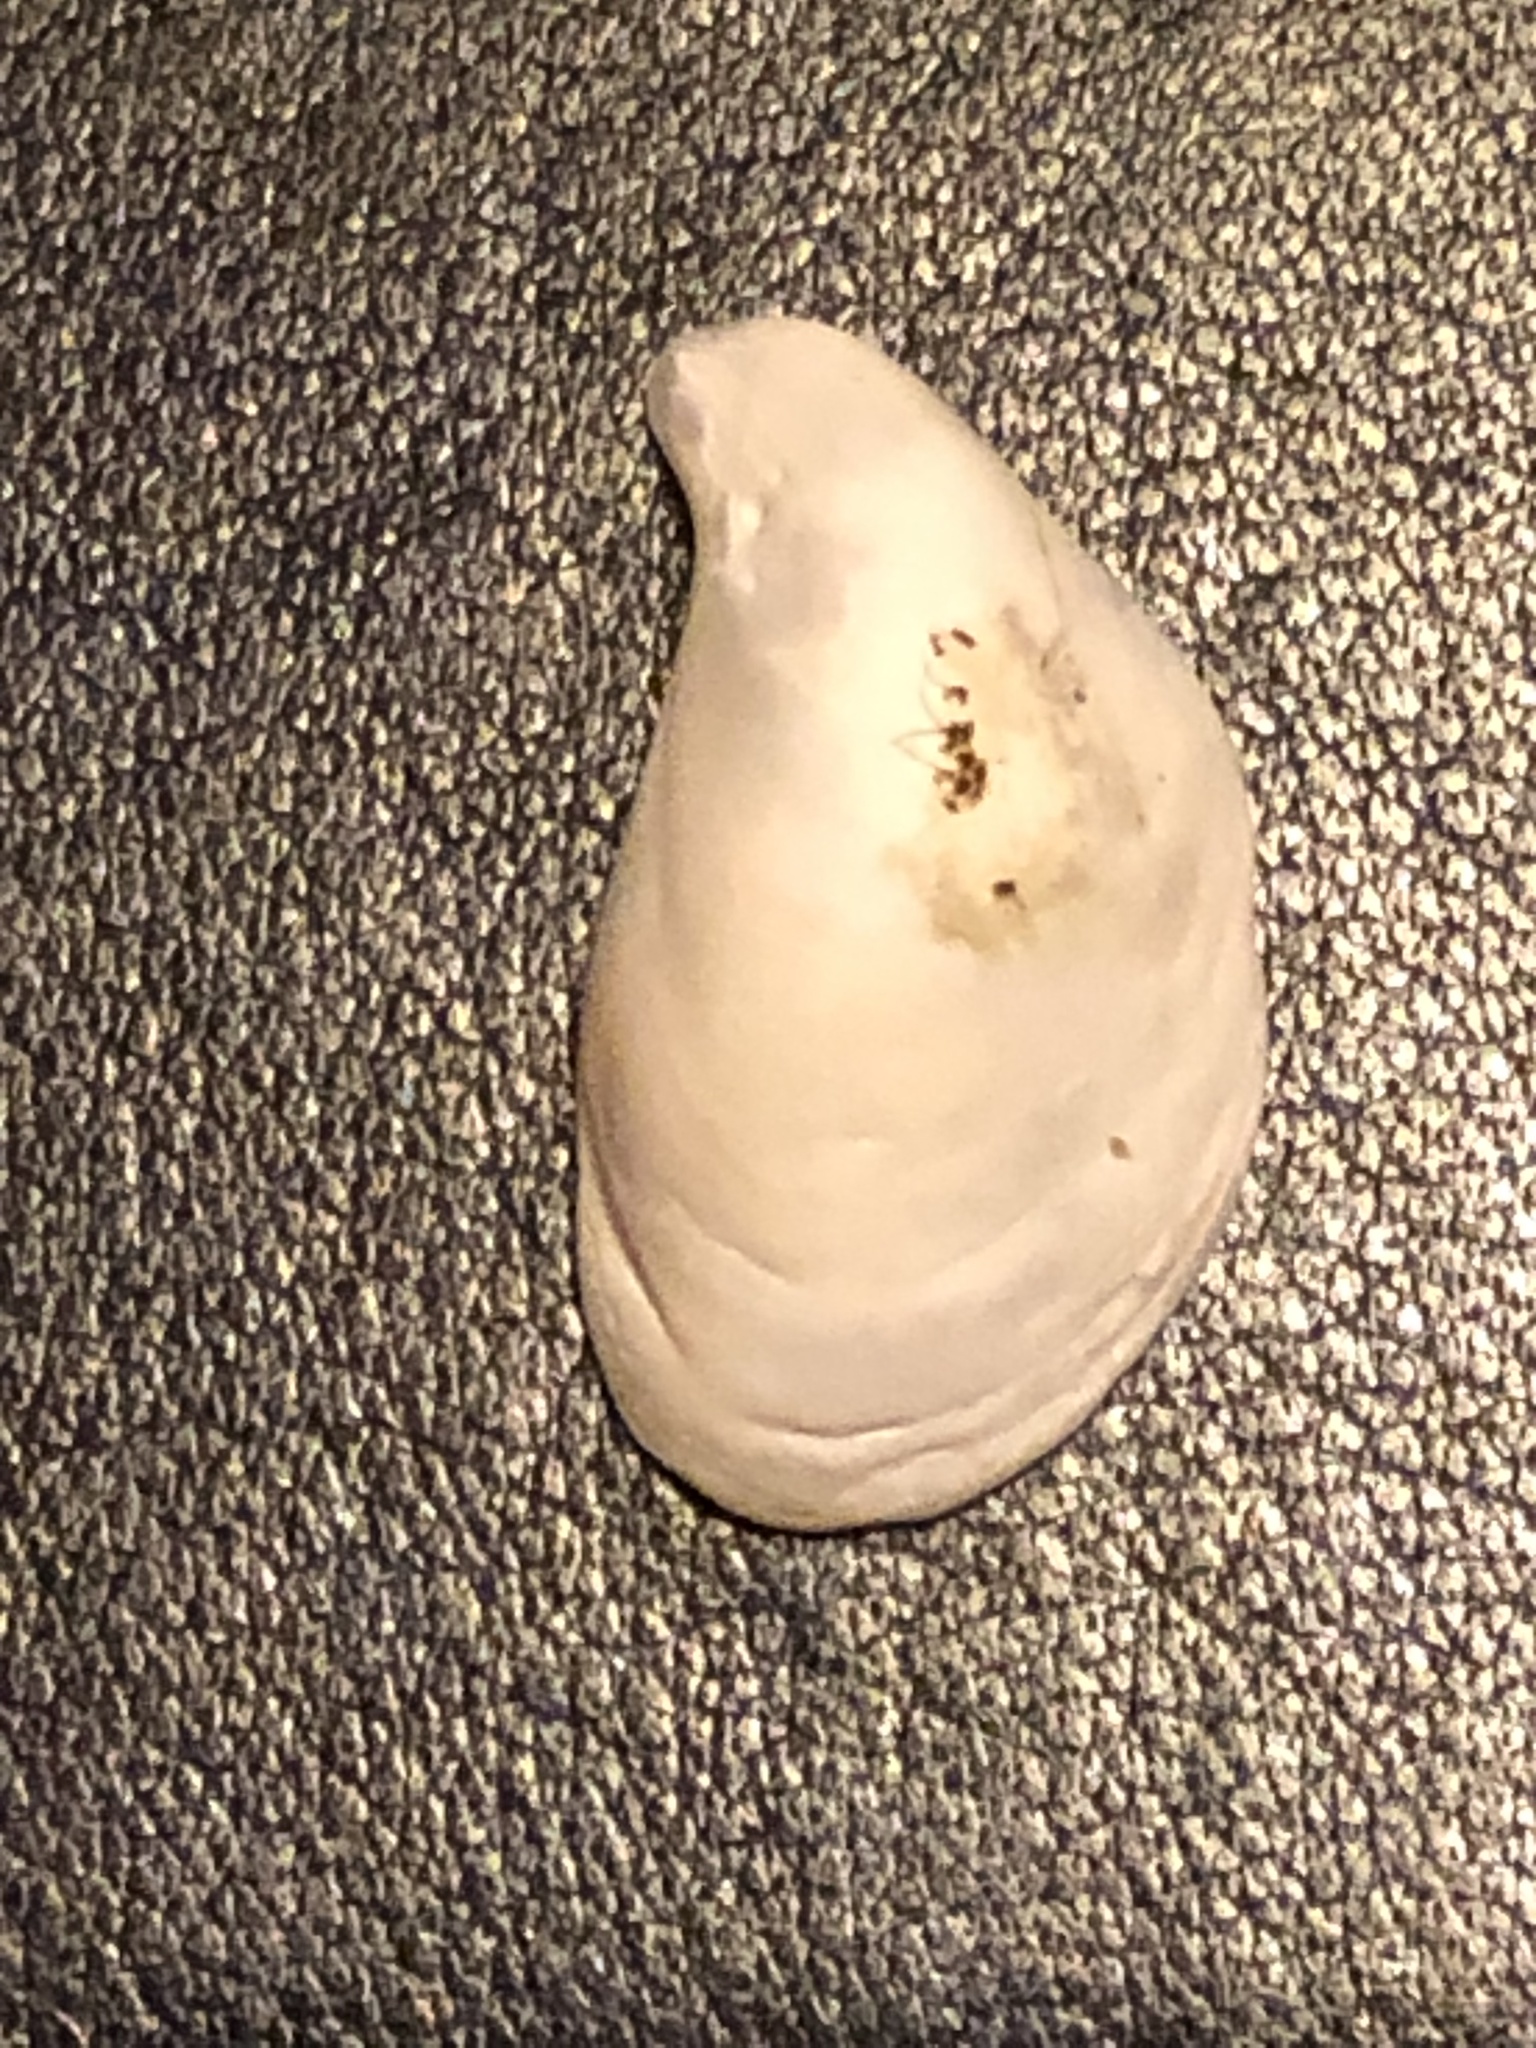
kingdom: Animalia
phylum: Mollusca
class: Bivalvia
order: Myida
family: Dreissenidae
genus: Dreissena
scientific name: Dreissena bugensis
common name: Quagga mussel
